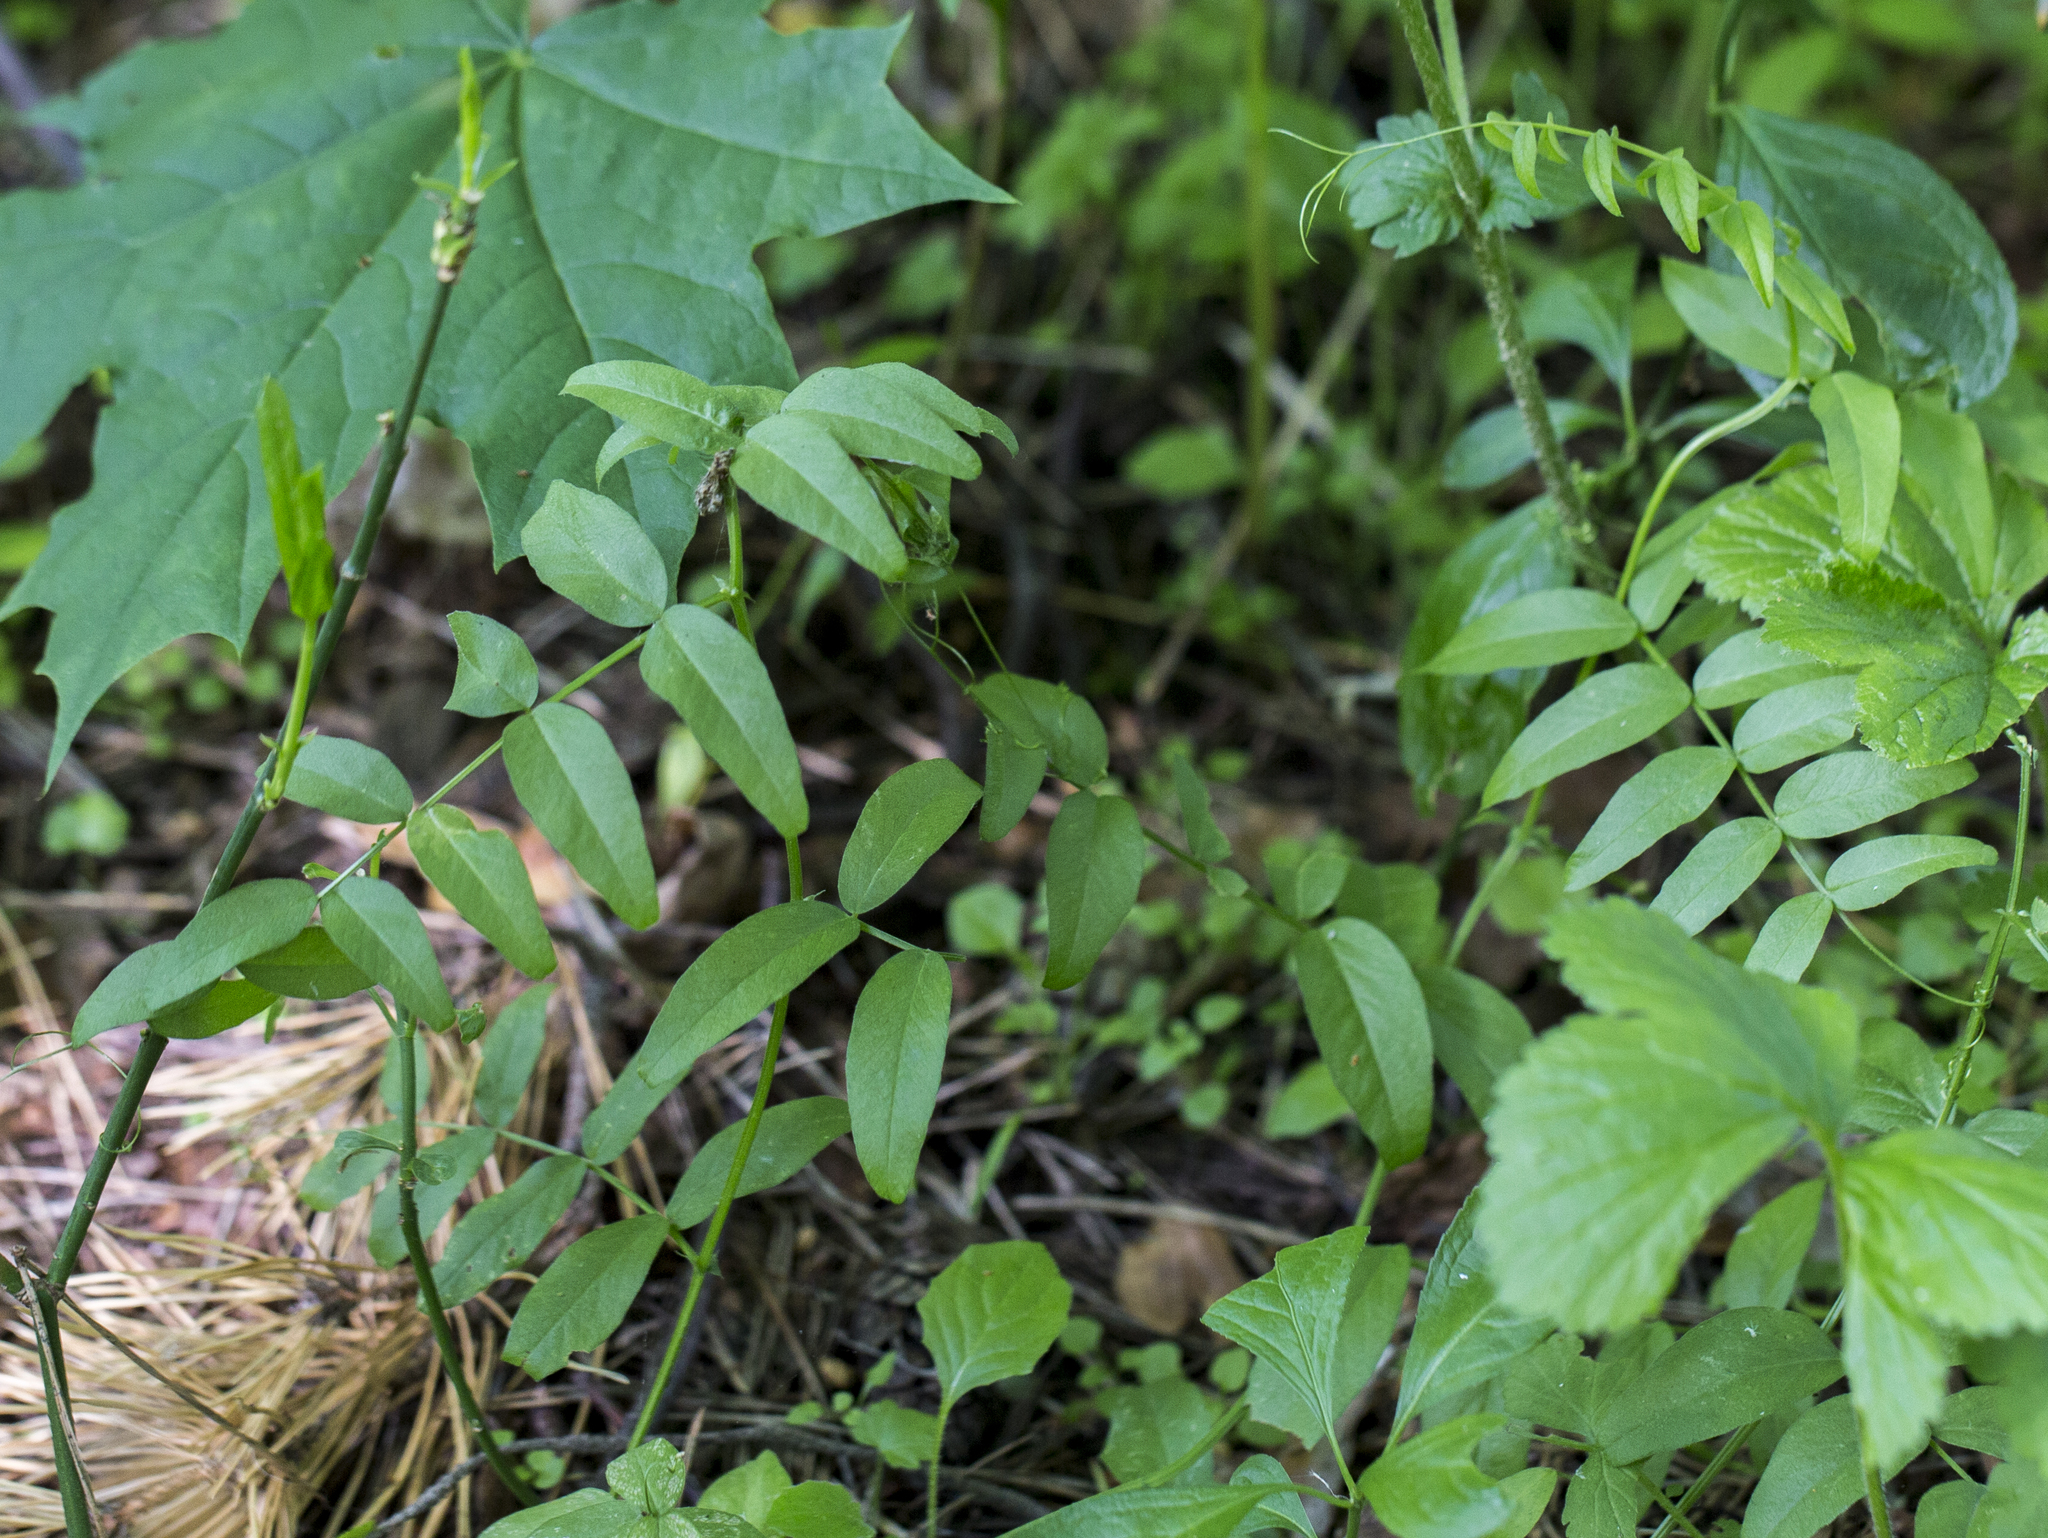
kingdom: Plantae
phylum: Tracheophyta
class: Magnoliopsida
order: Fabales
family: Fabaceae
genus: Vicia
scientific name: Vicia sepium
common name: Bush vetch
